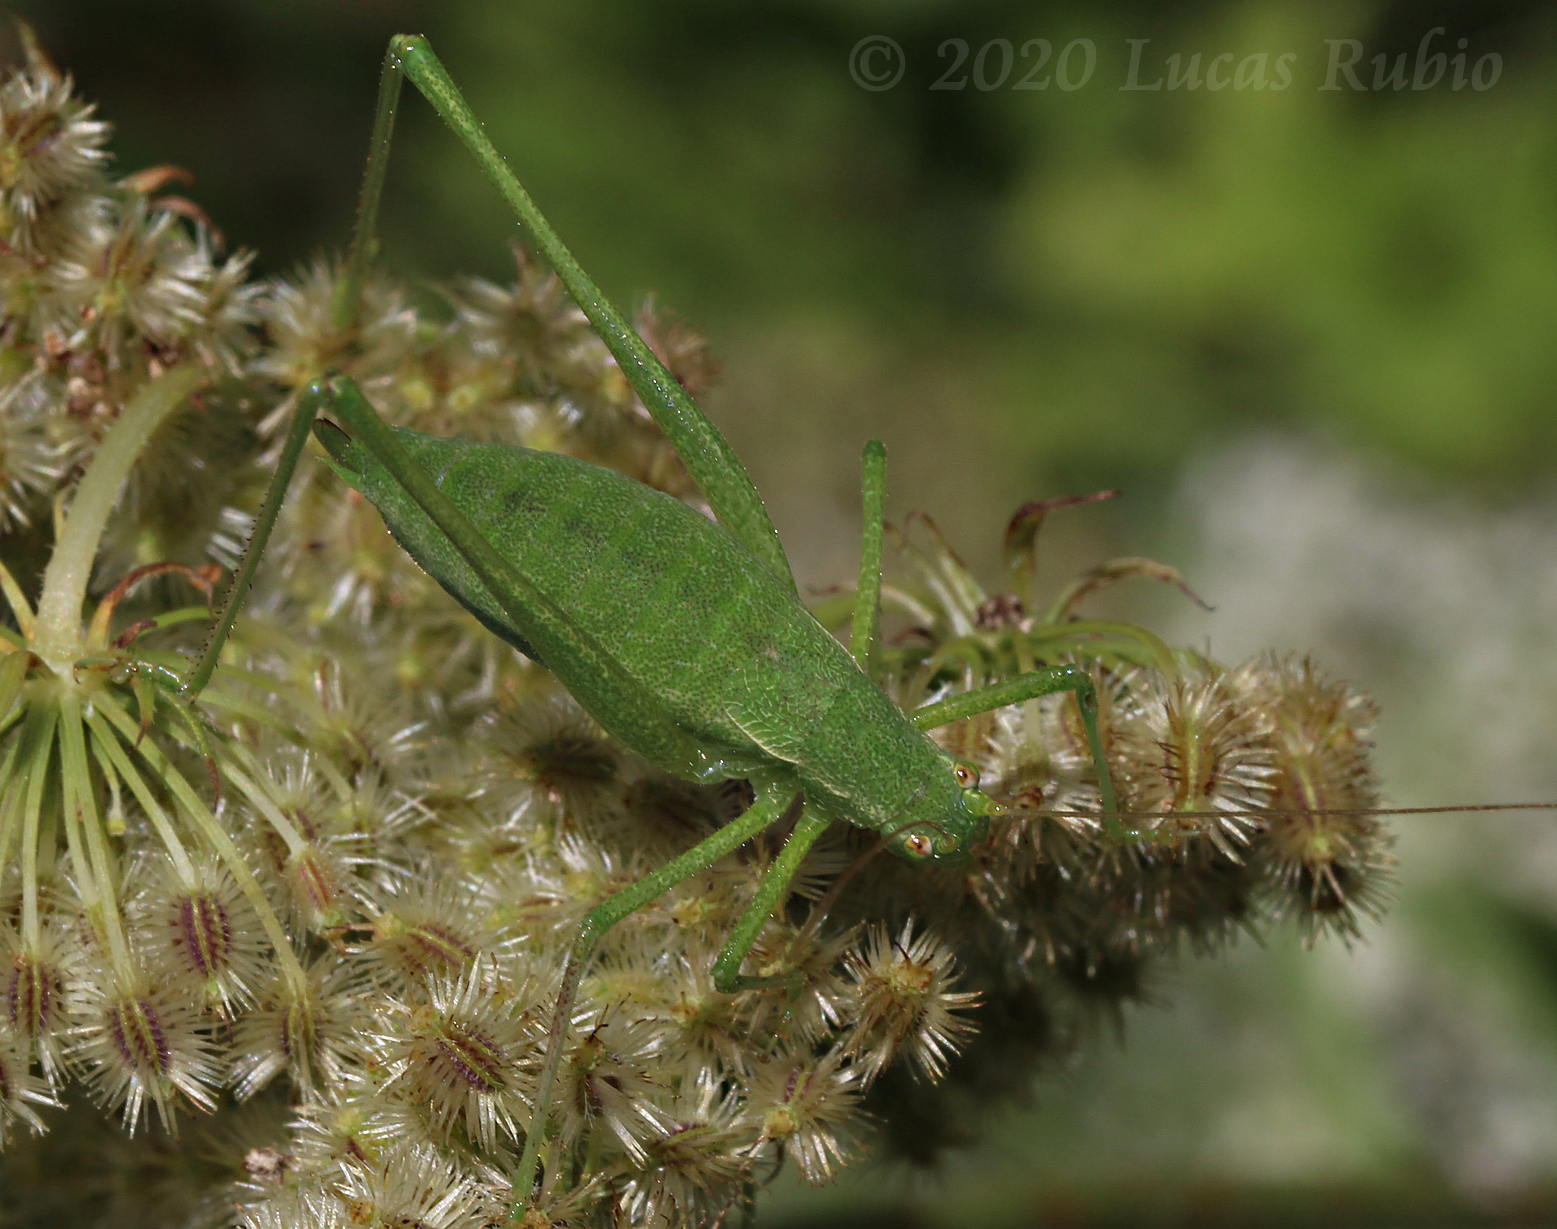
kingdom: Animalia
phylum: Arthropoda
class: Insecta
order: Orthoptera
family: Tettigoniidae
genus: Anisophya
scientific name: Anisophya punctinervis
